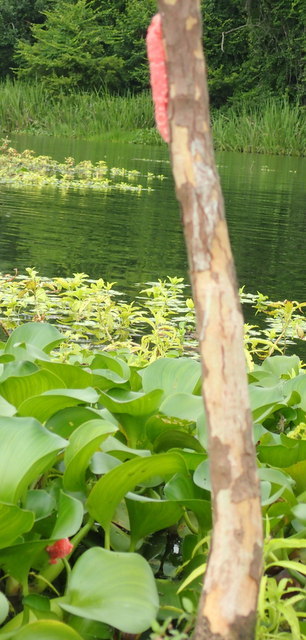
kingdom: Animalia
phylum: Mollusca
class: Gastropoda
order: Architaenioglossa
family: Ampullariidae
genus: Pomacea
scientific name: Pomacea maculata
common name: Giant applesnail
